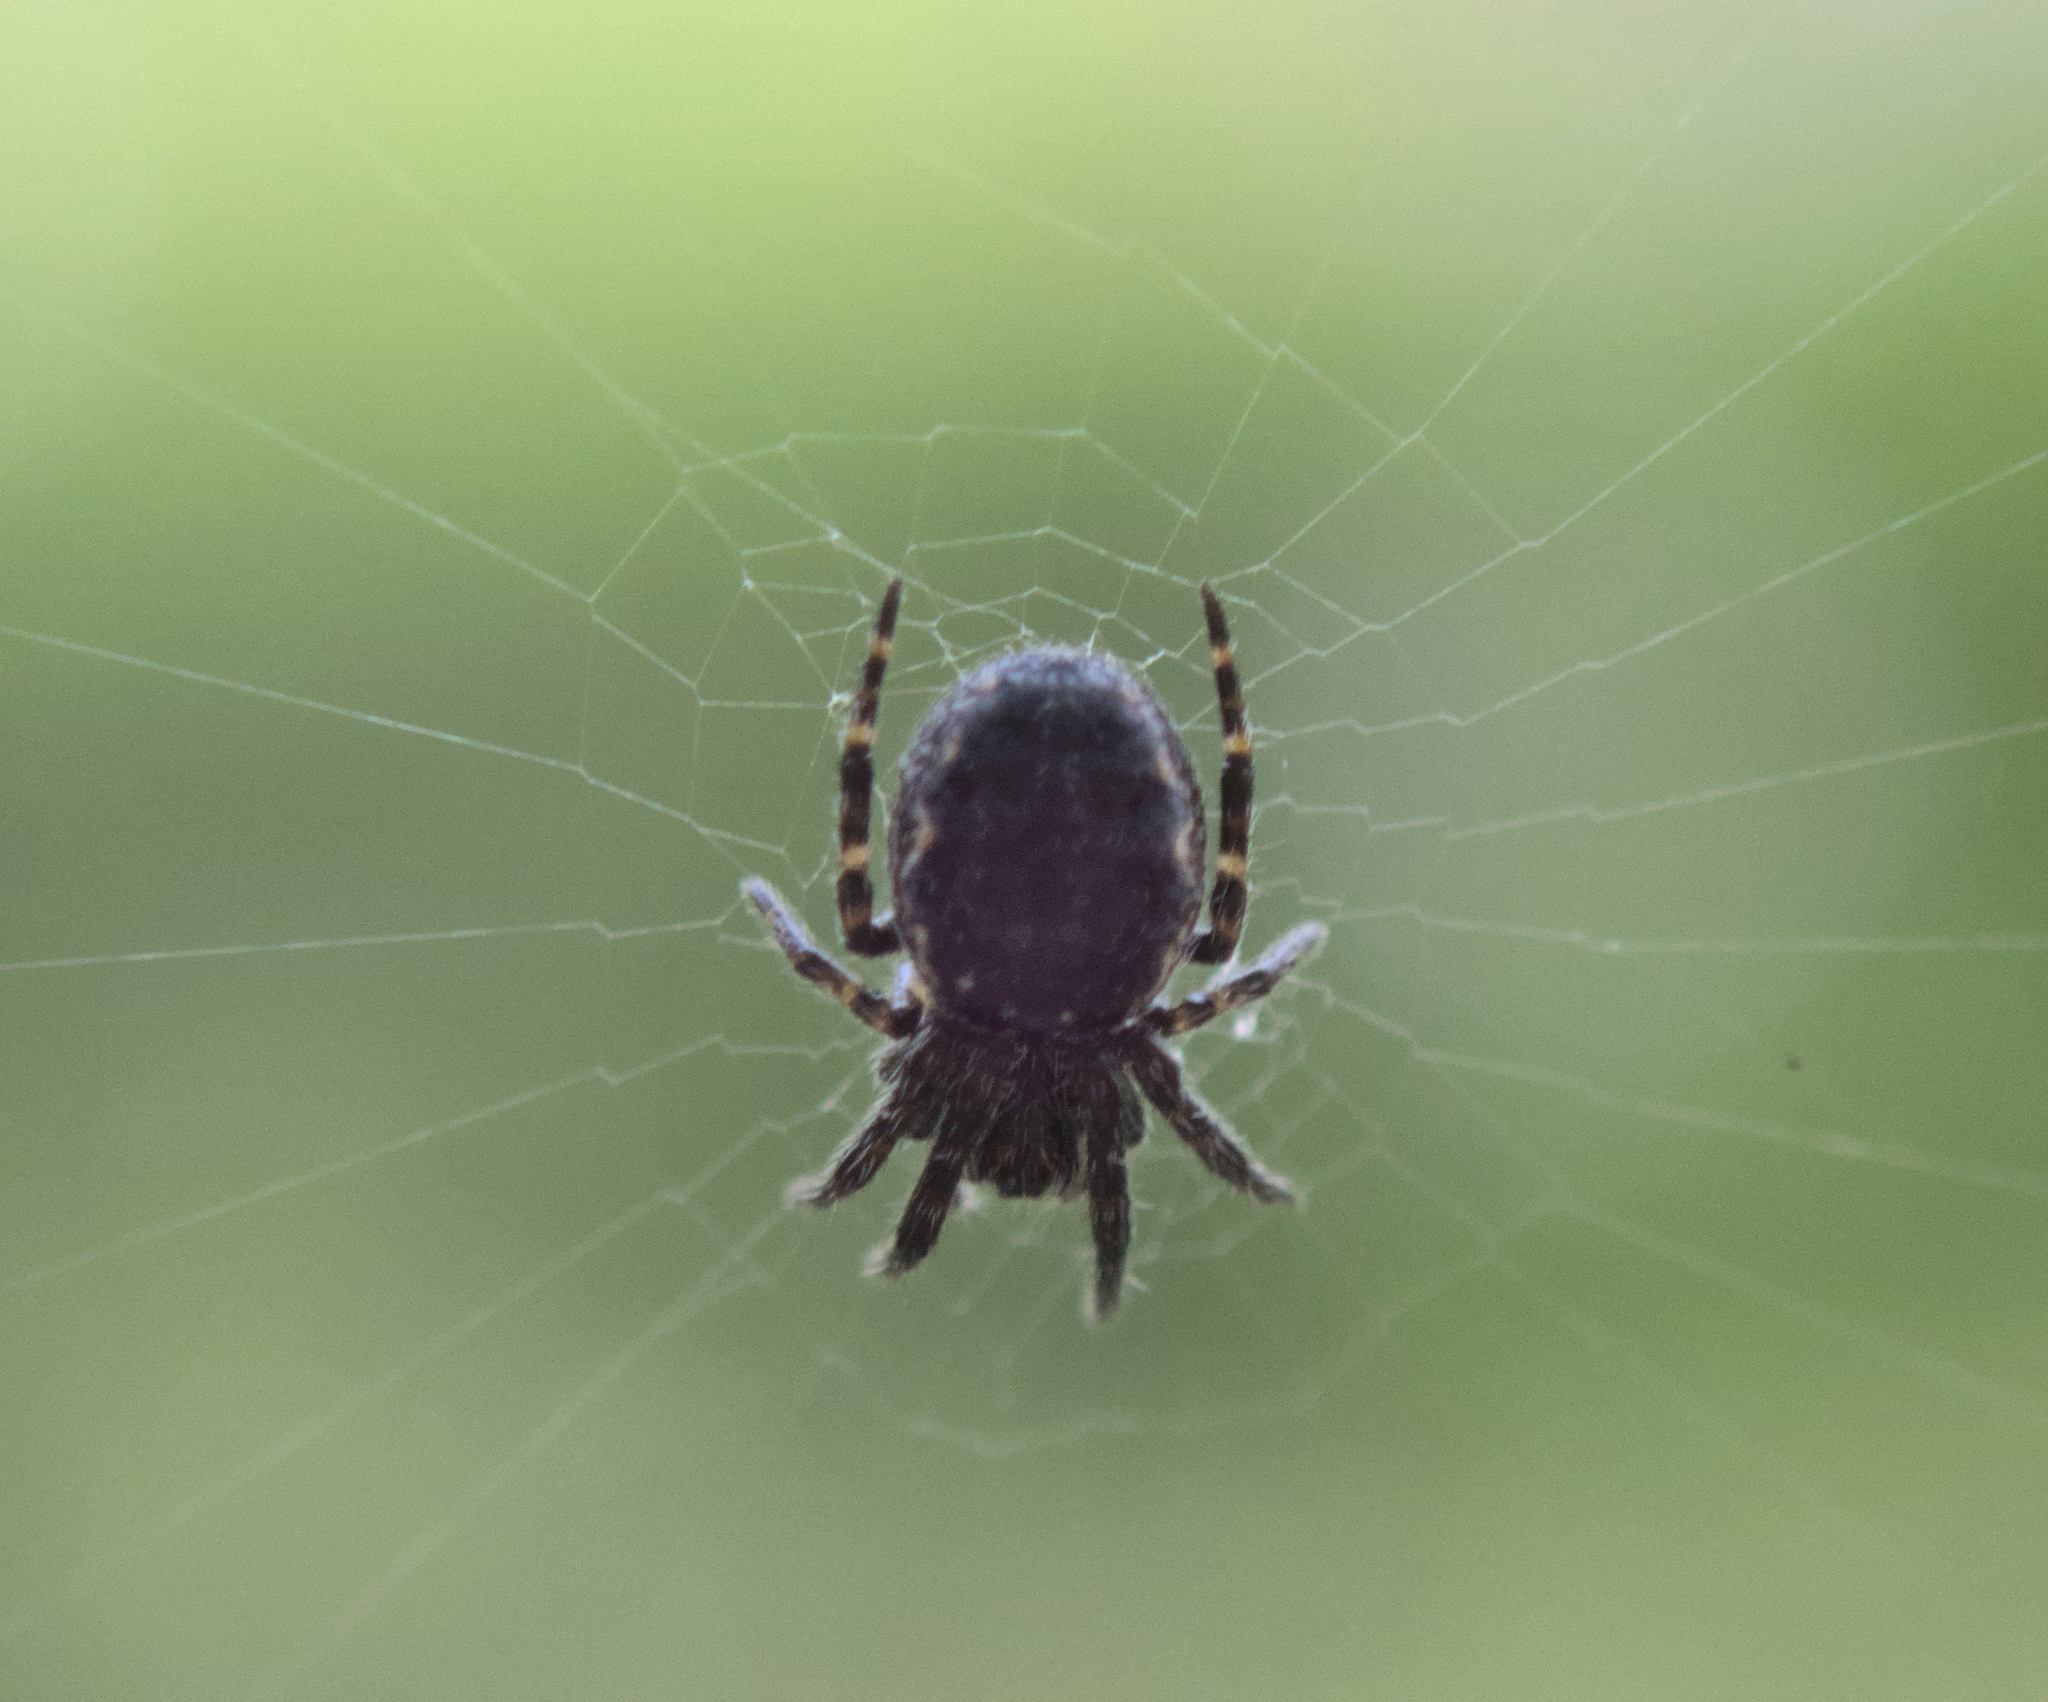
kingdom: Animalia
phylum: Arthropoda
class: Arachnida
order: Araneae
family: Araneidae
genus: Nuctenea
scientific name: Nuctenea umbratica
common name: Toad spider
